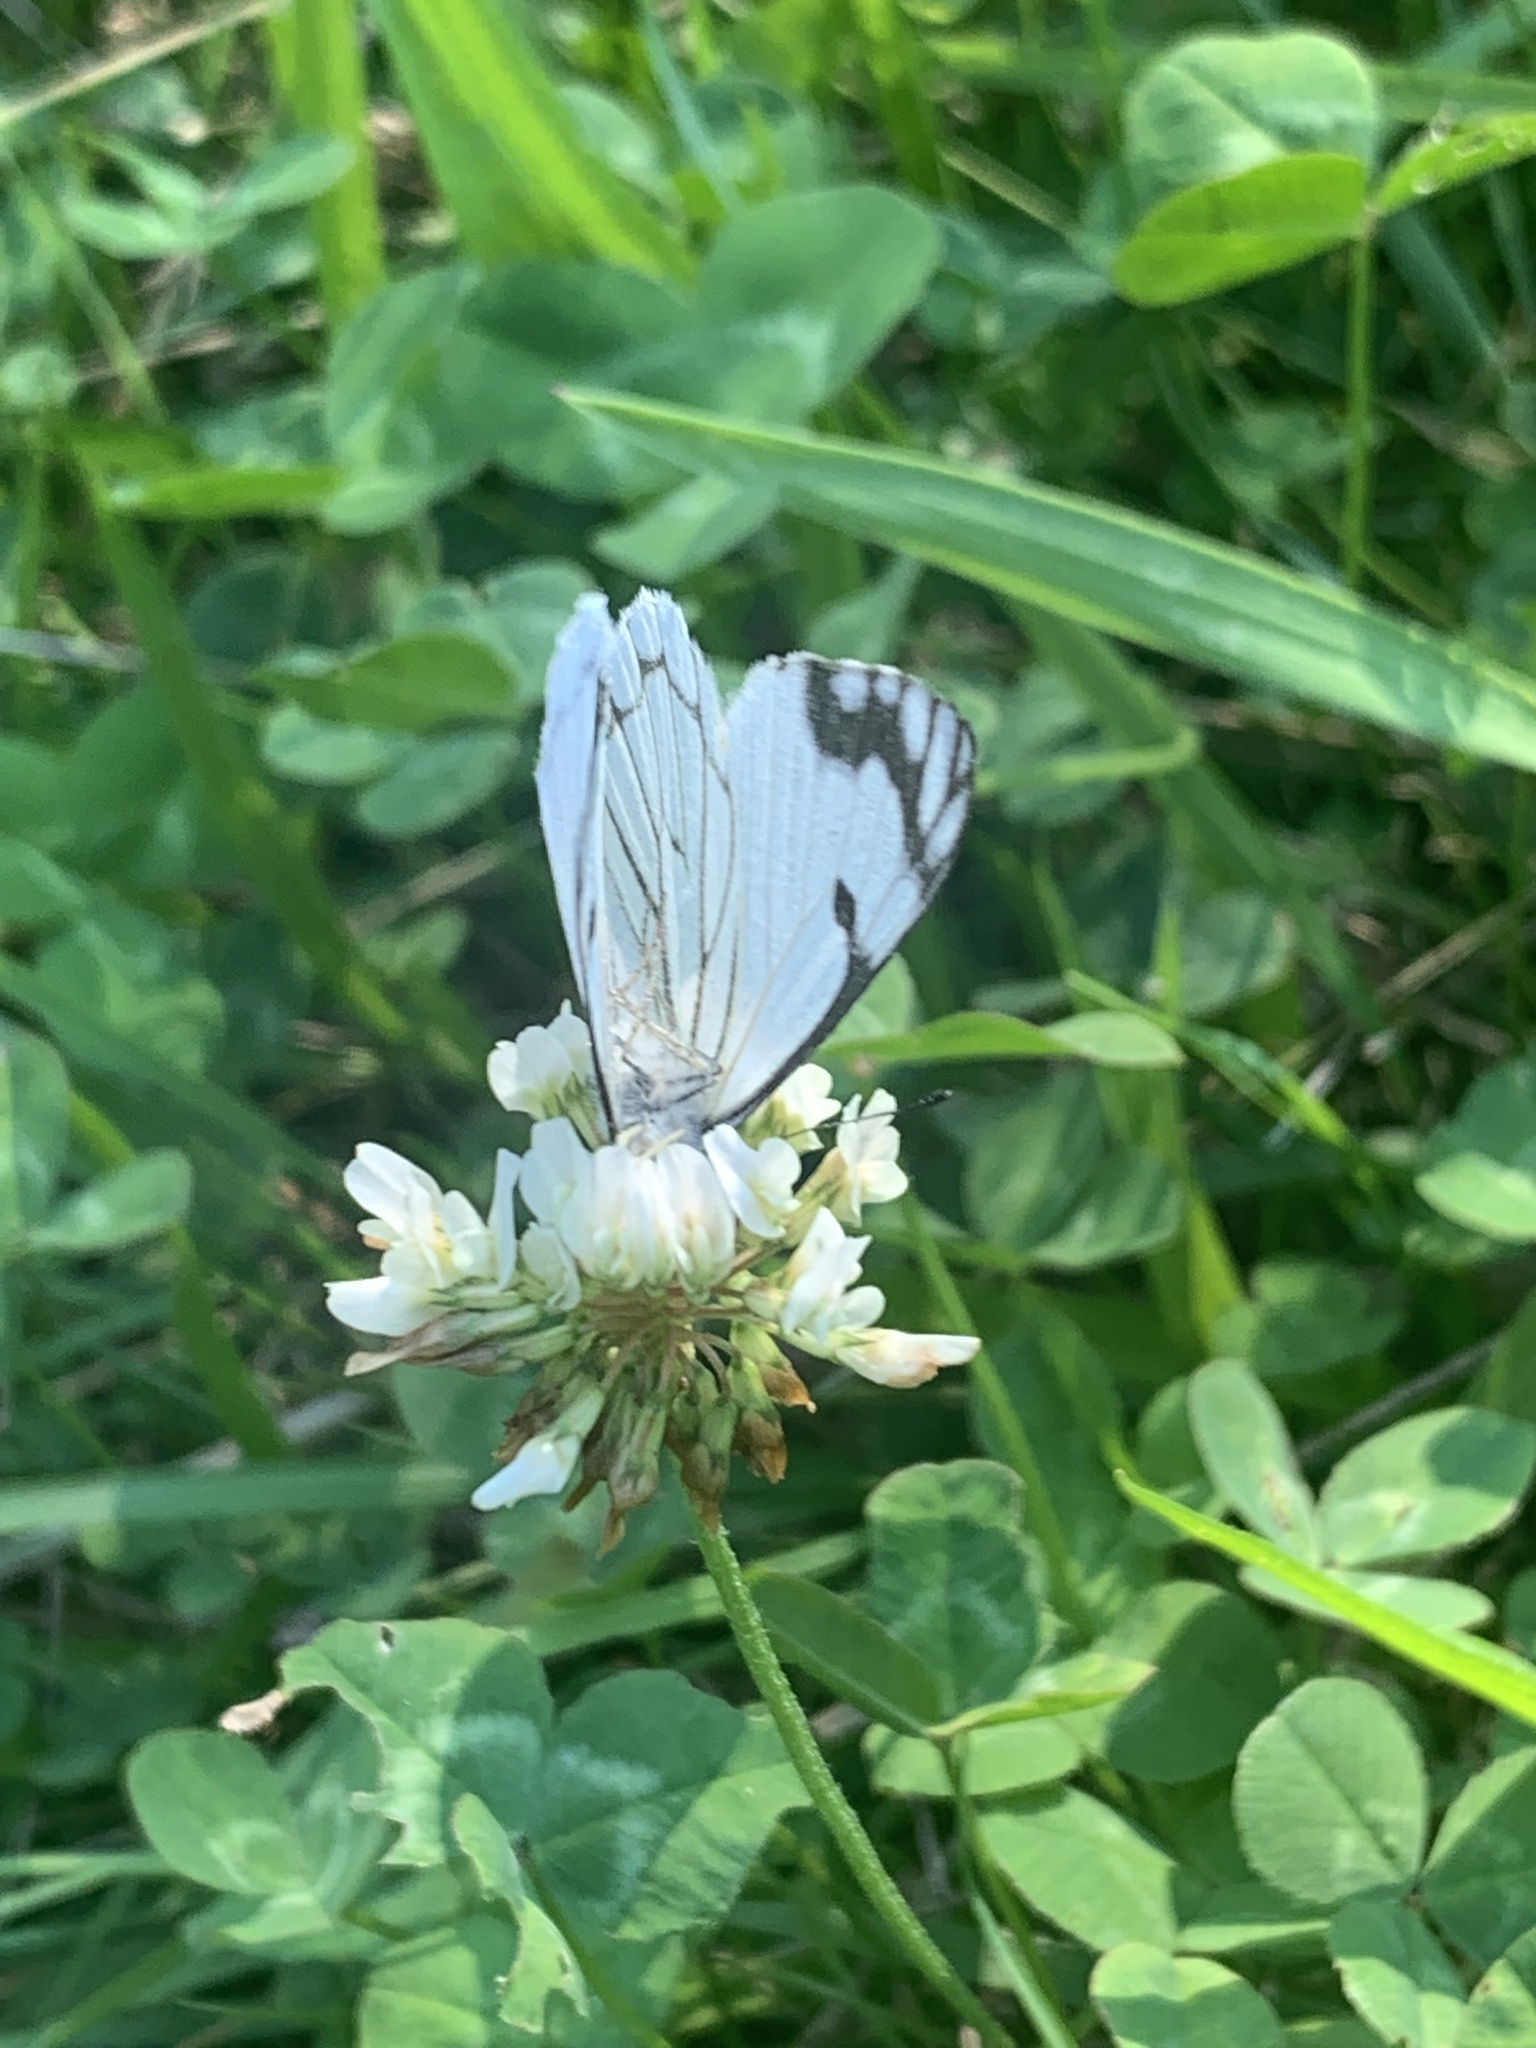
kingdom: Animalia
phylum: Arthropoda
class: Insecta
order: Lepidoptera
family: Pieridae
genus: Neophasia
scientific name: Neophasia menapia
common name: Pine white
